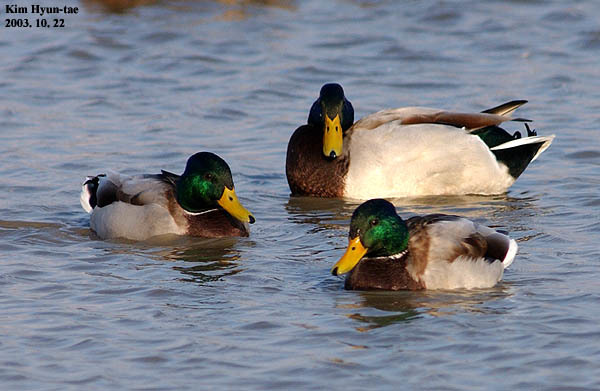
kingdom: Animalia
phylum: Chordata
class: Aves
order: Anseriformes
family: Anatidae
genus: Anas
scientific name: Anas platyrhynchos
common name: Mallard
